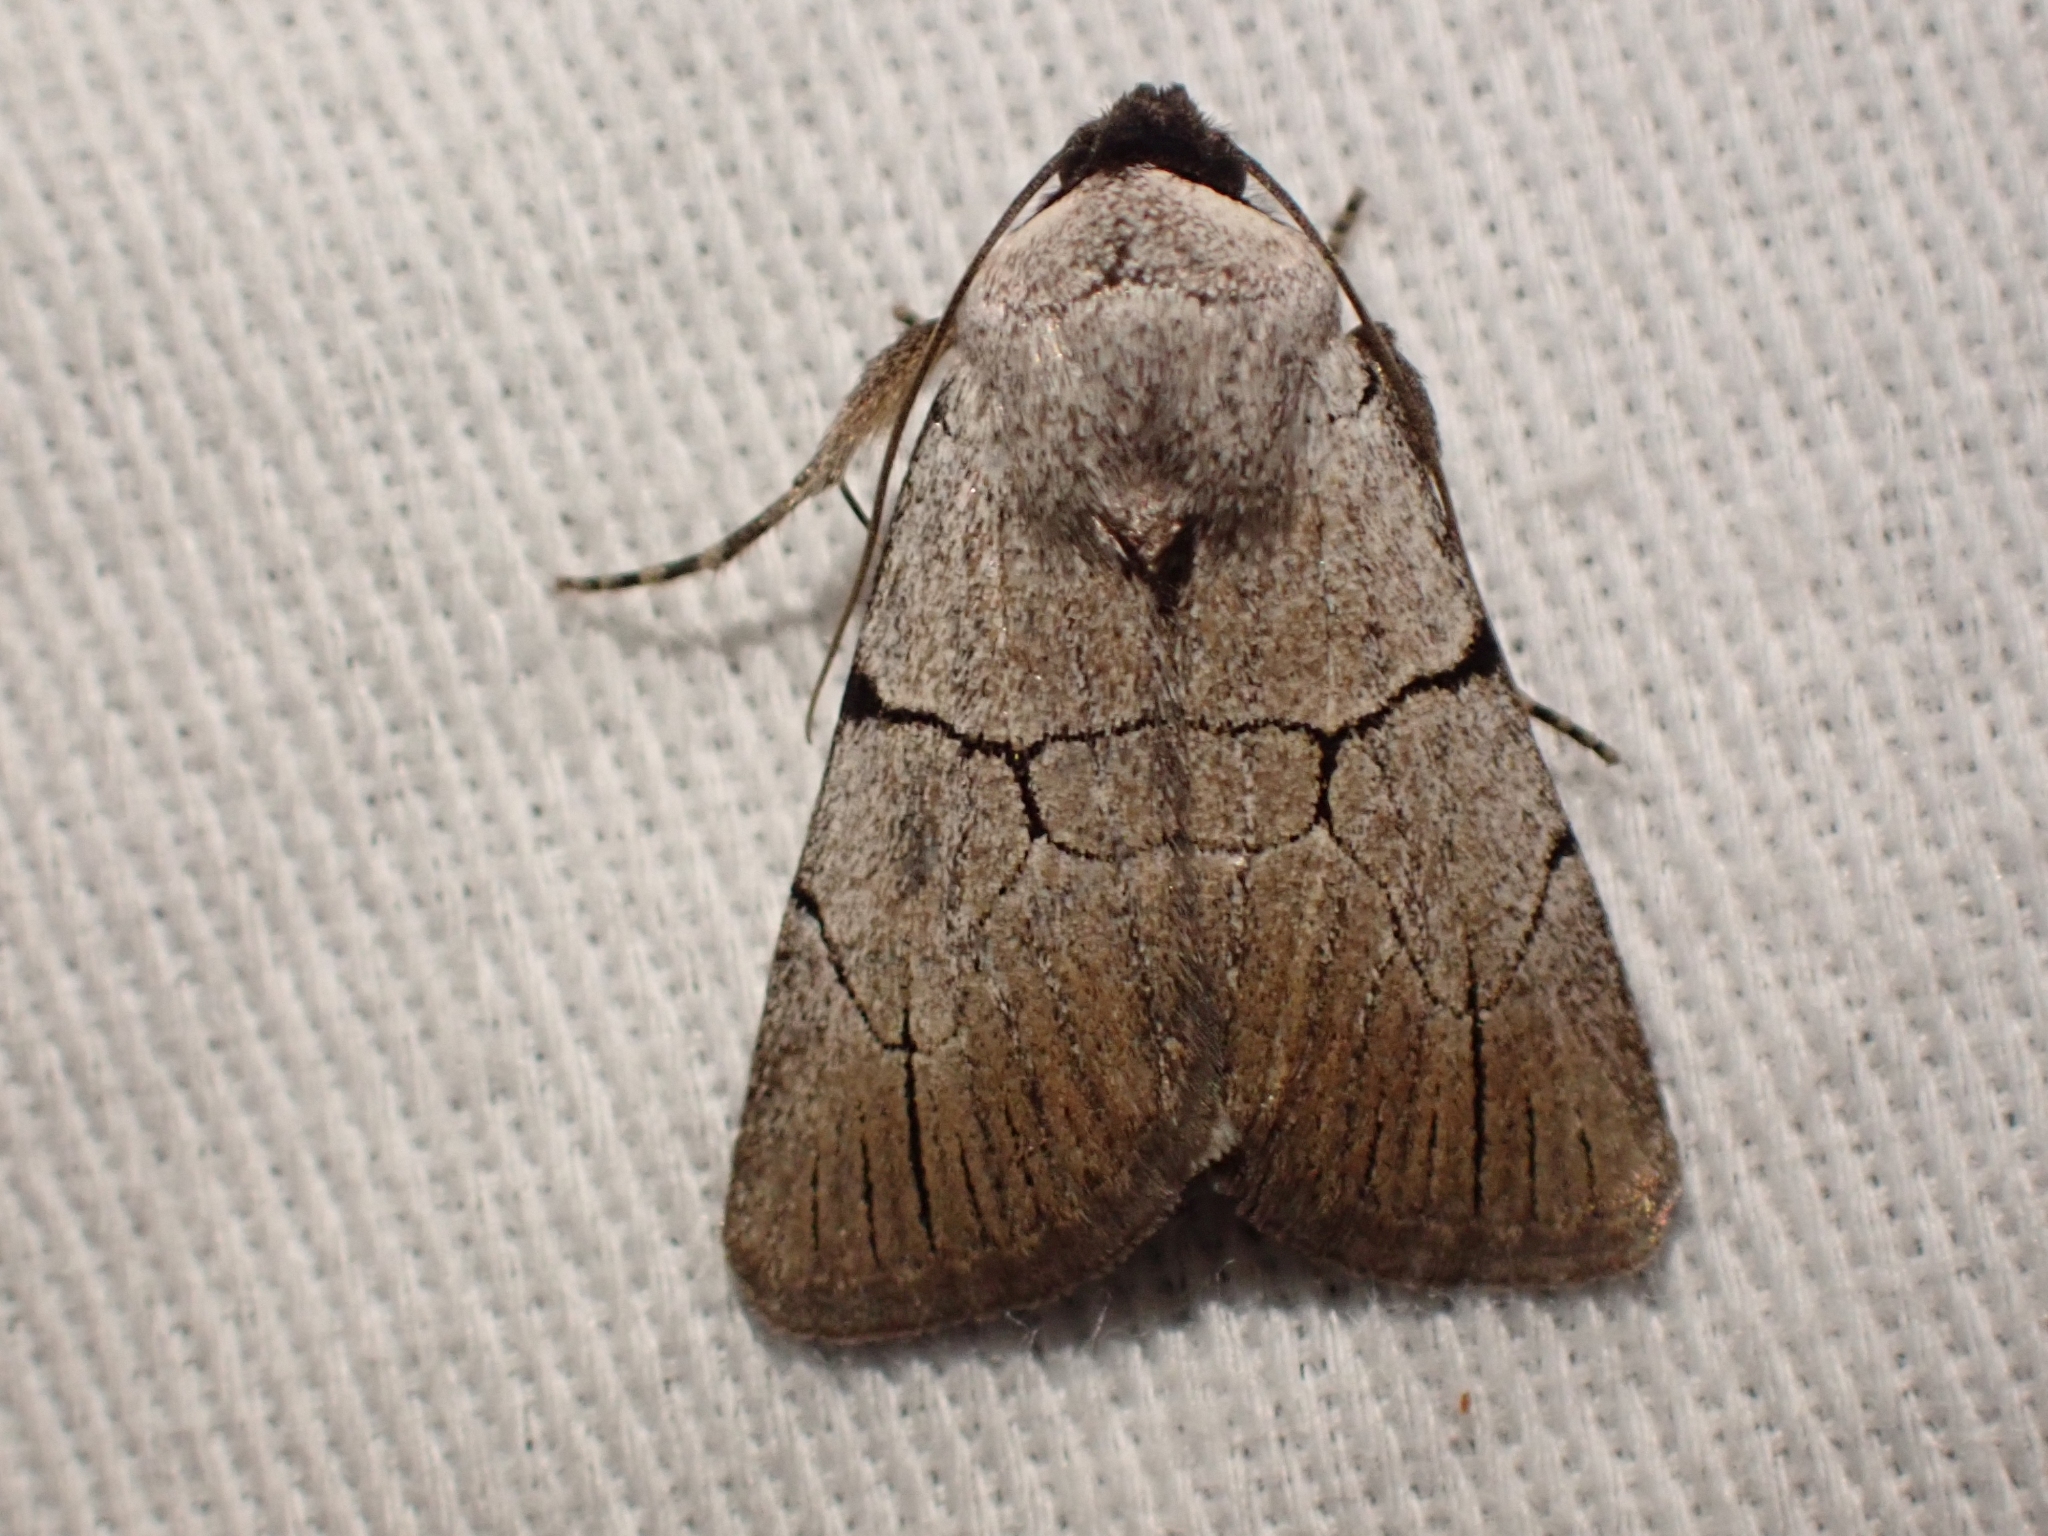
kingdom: Animalia
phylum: Arthropoda
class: Insecta
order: Lepidoptera
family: Noctuidae
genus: Sympistis
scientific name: Sympistis greyi
